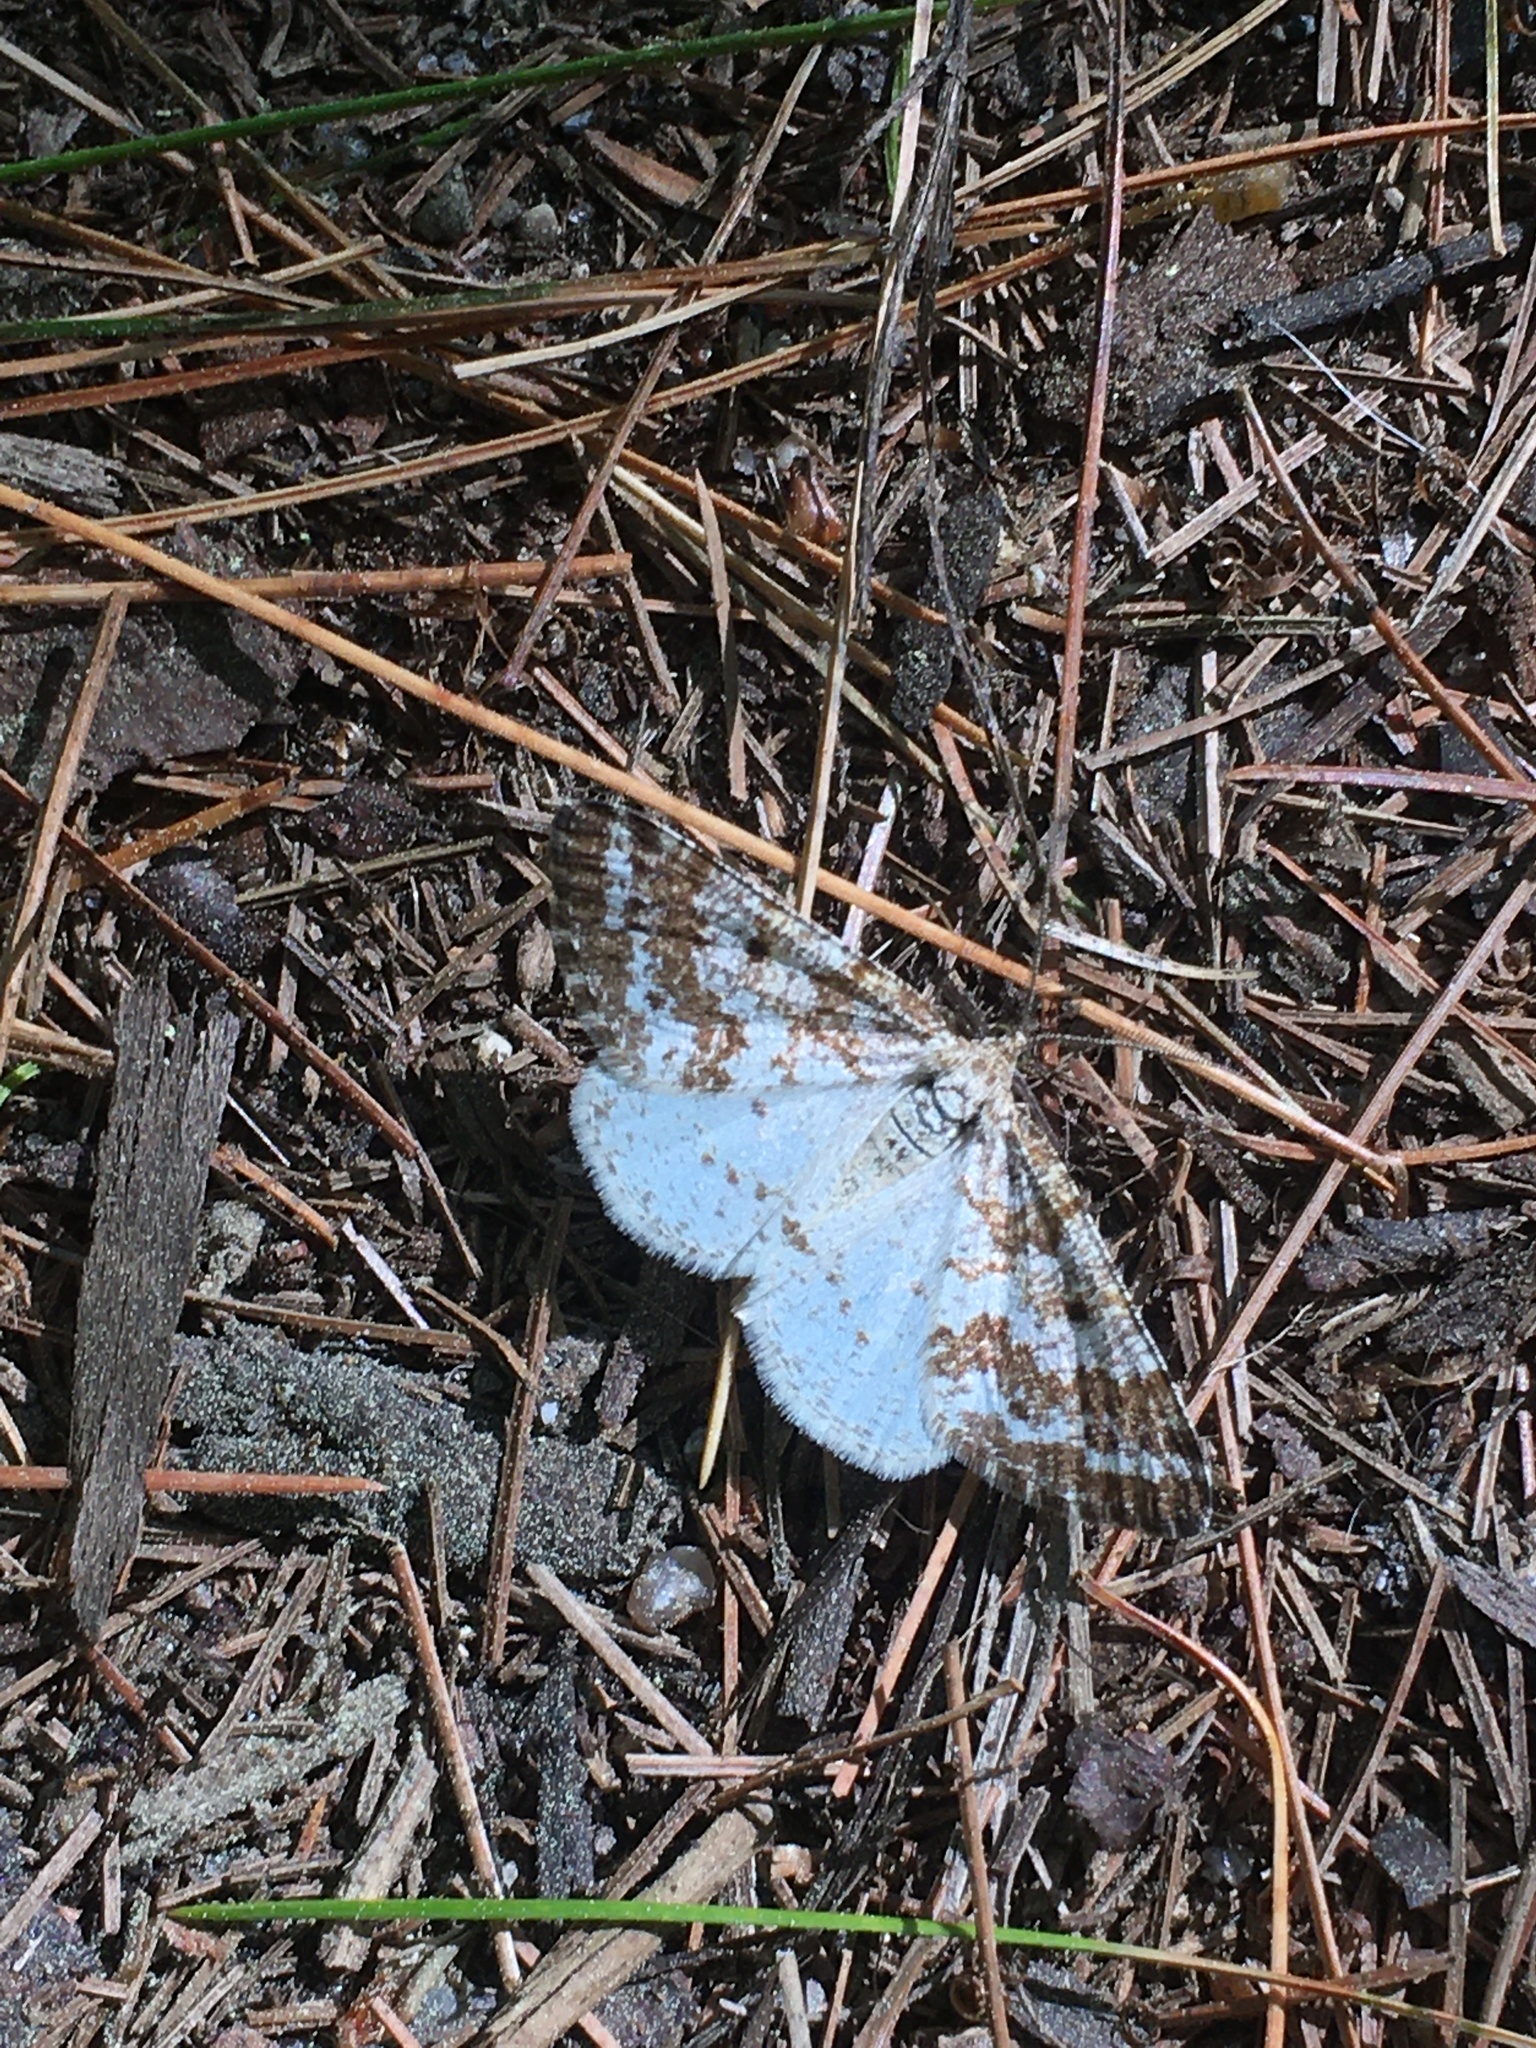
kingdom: Animalia
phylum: Arthropoda
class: Insecta
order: Lepidoptera
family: Geometridae
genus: Eufidonia
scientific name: Eufidonia notataria
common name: Powder moth
